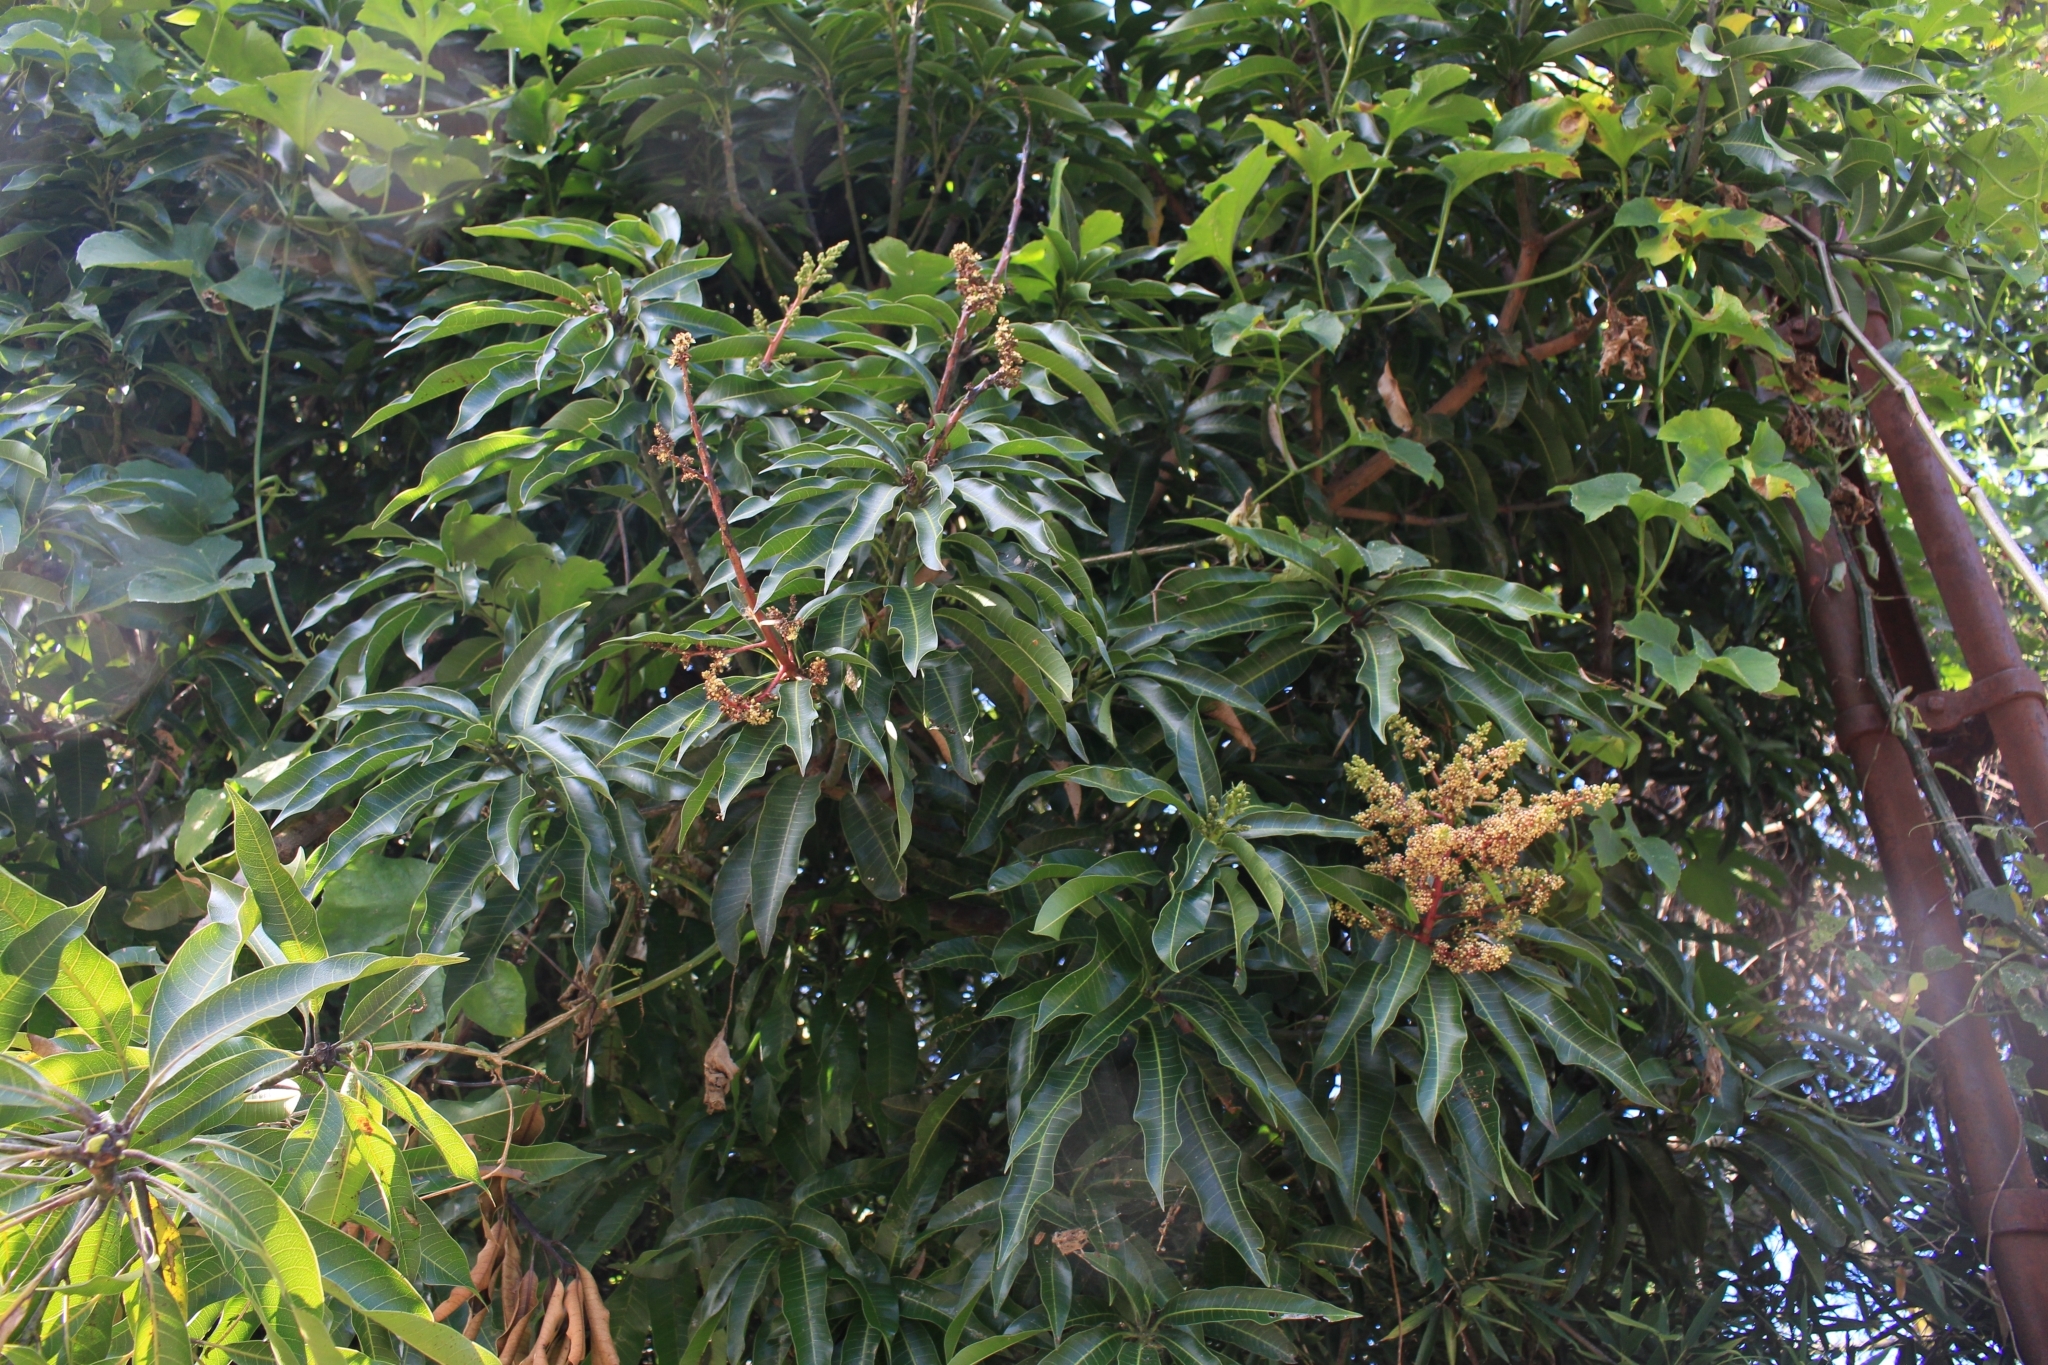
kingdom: Plantae
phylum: Tracheophyta
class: Magnoliopsida
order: Sapindales
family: Anacardiaceae
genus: Mangifera
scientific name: Mangifera indica
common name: Mango
